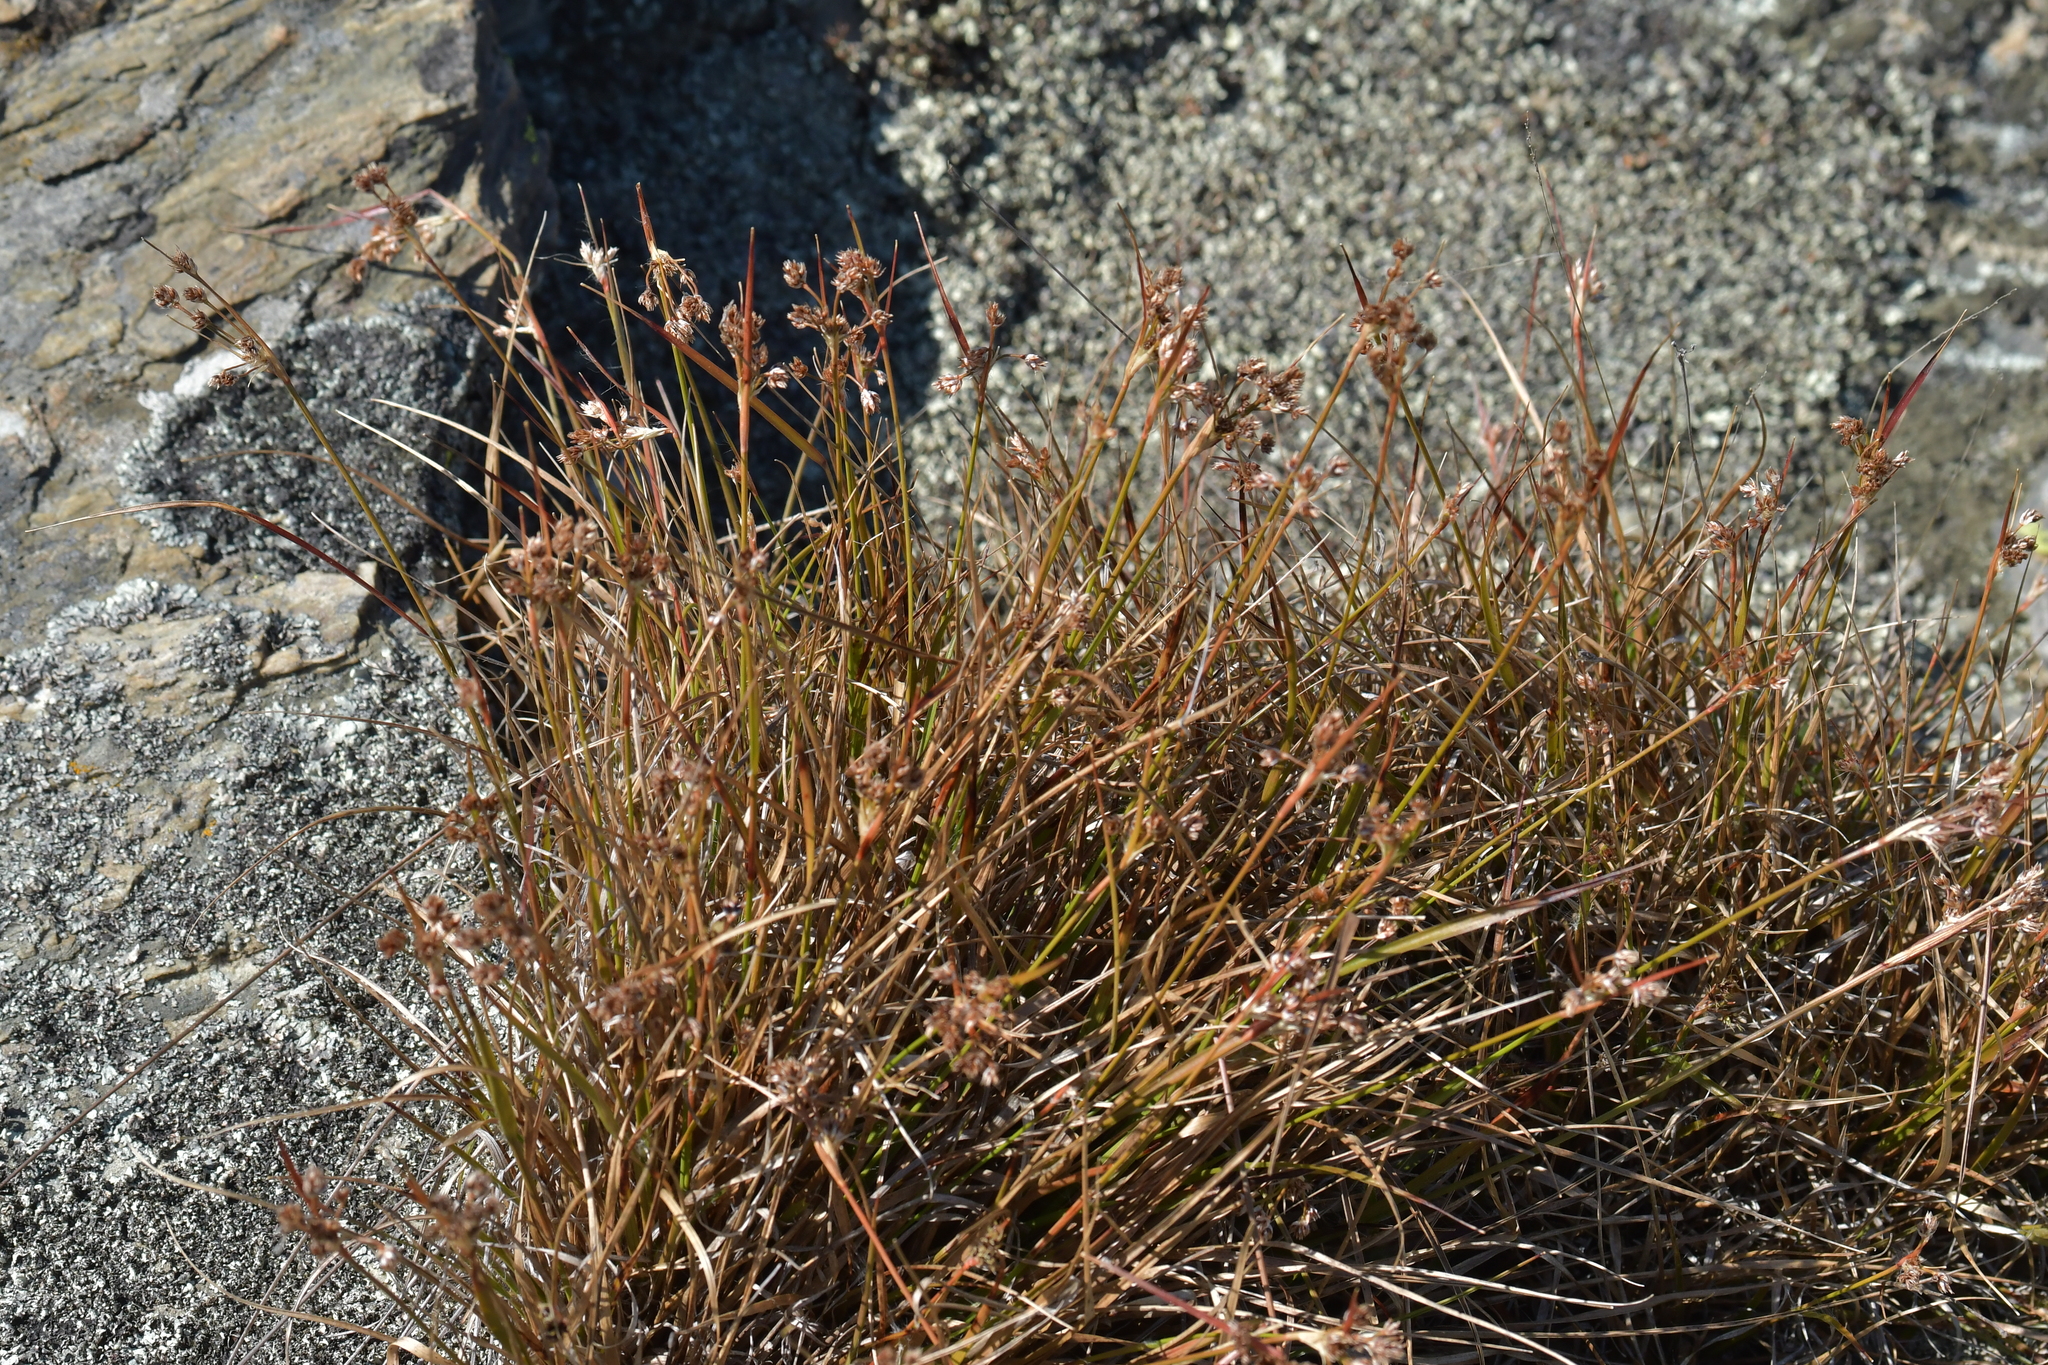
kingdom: Plantae
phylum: Tracheophyta
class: Liliopsida
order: Poales
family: Juncaceae
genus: Luzula
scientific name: Luzula banksiana
